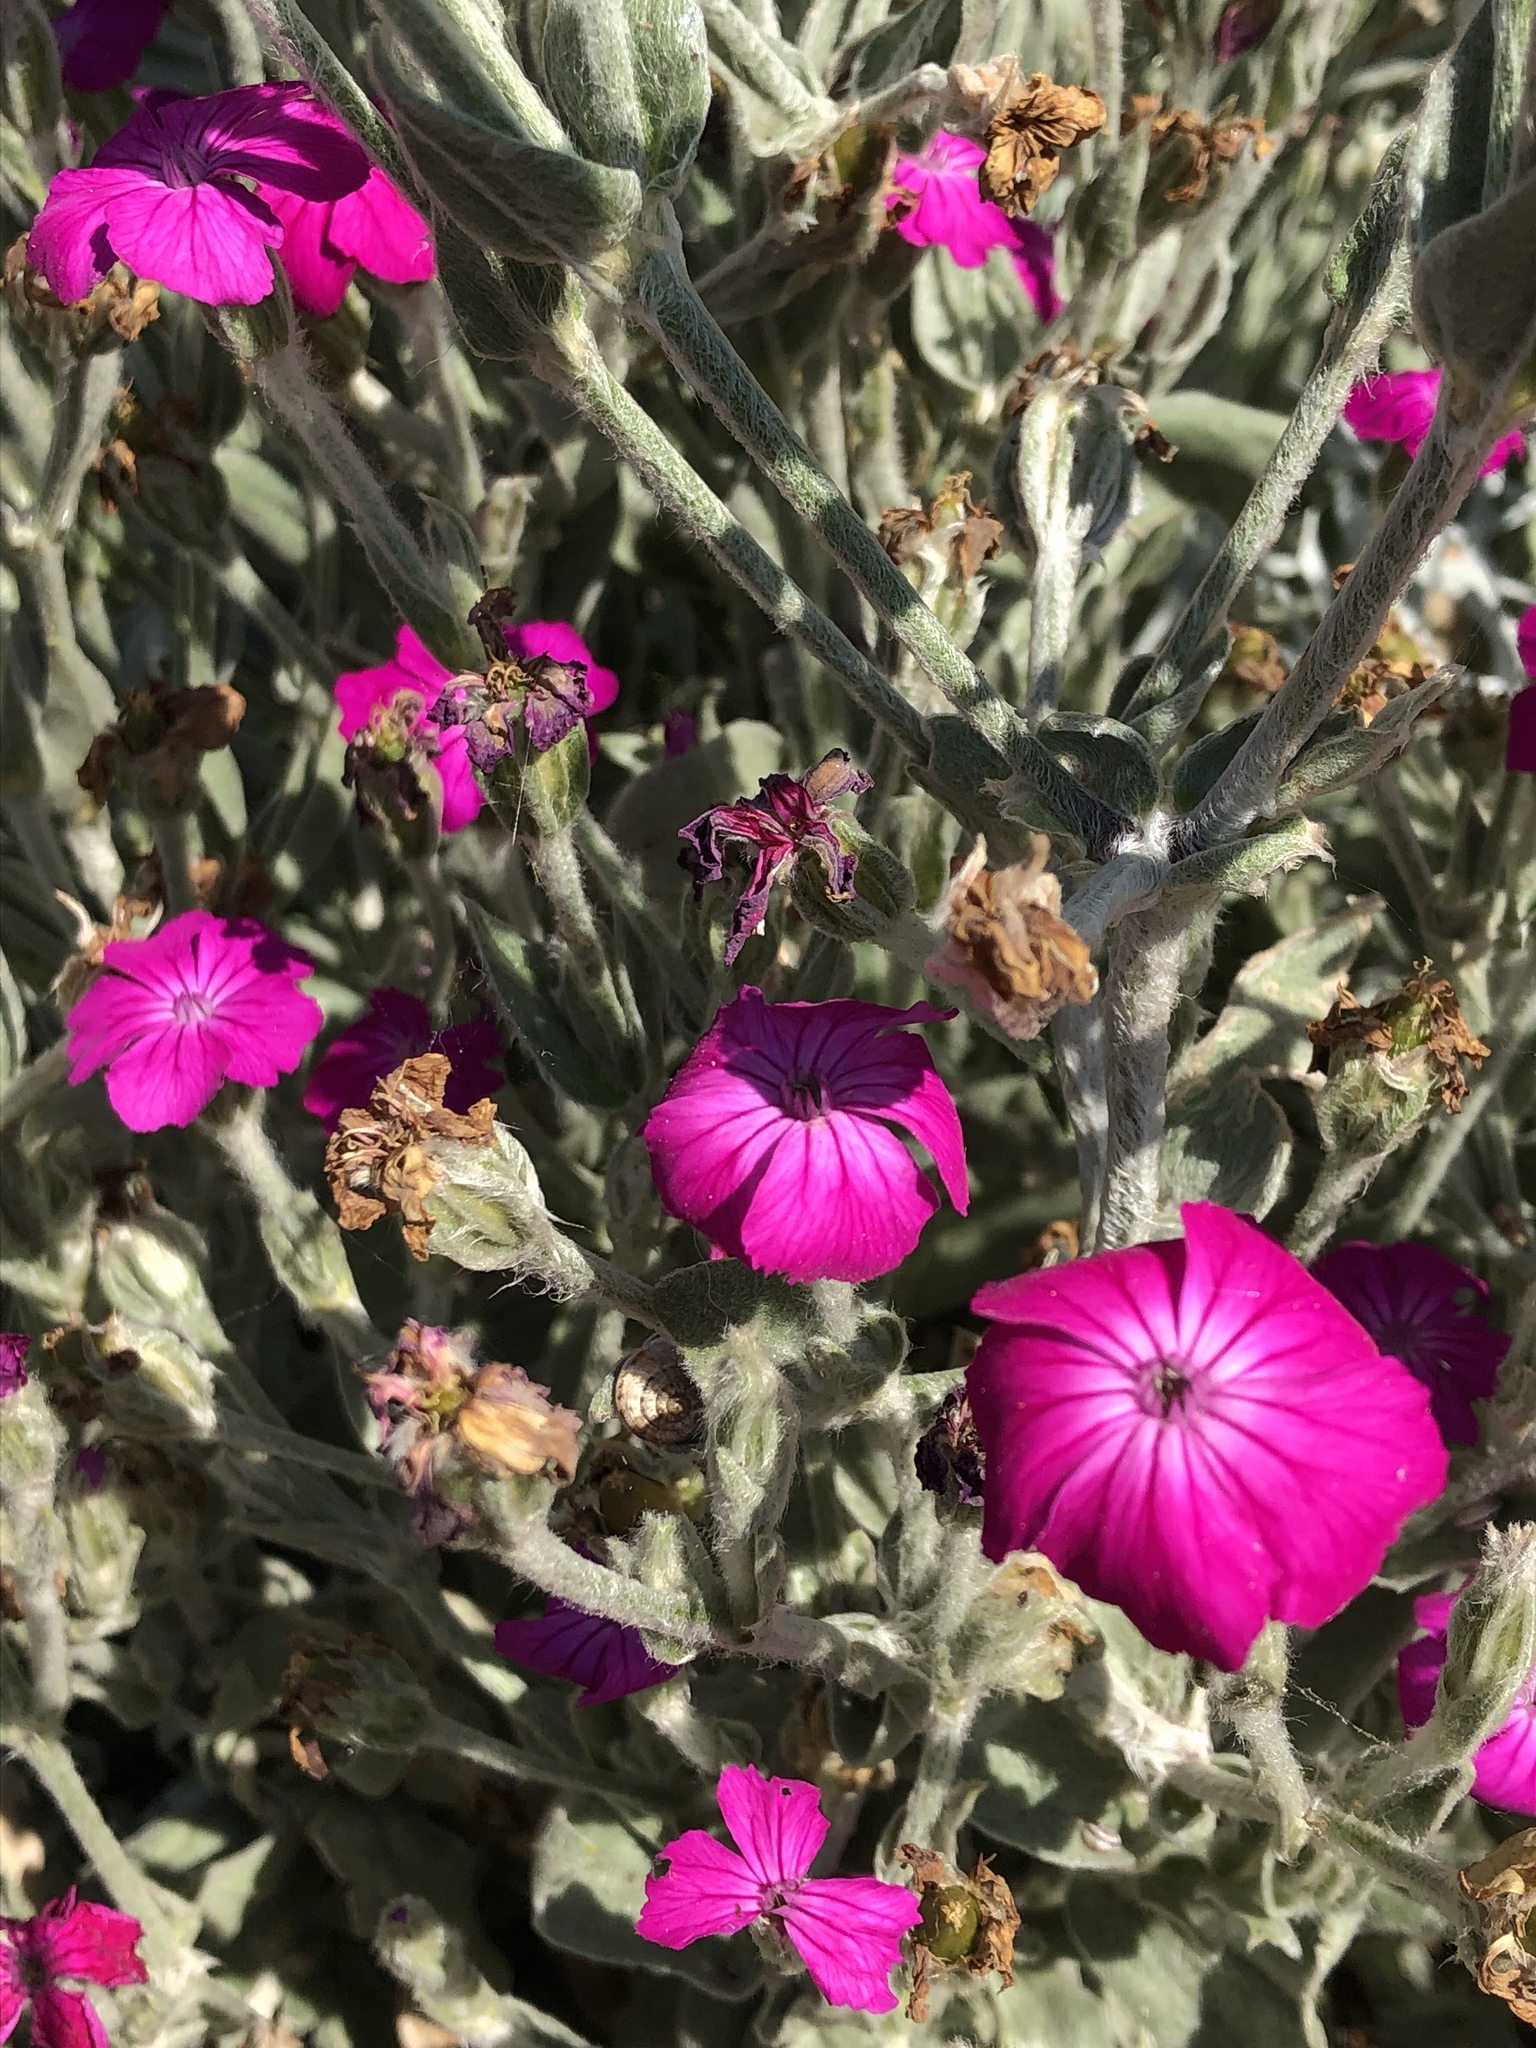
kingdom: Plantae
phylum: Tracheophyta
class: Magnoliopsida
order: Caryophyllales
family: Caryophyllaceae
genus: Silene
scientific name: Silene coronaria
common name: Rose campion
